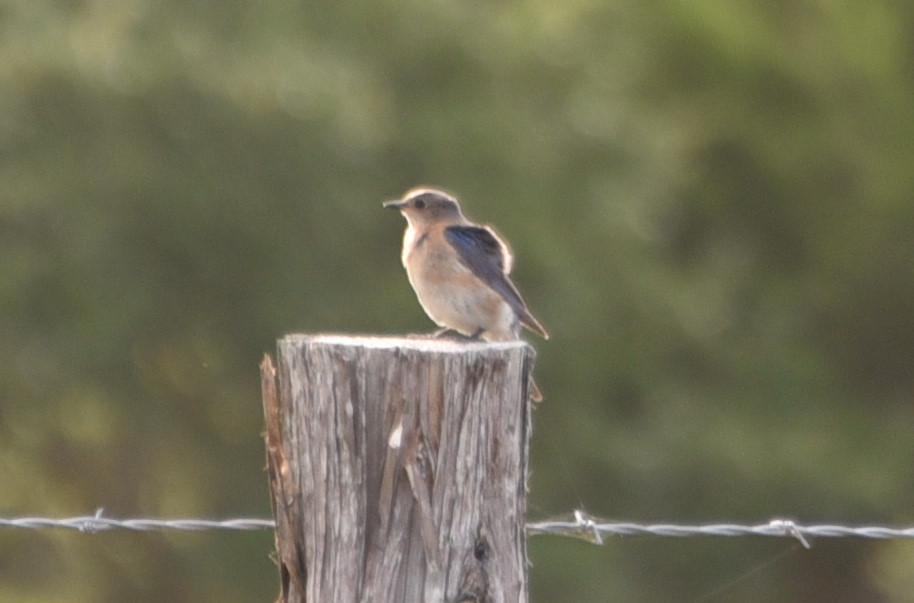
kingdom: Animalia
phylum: Chordata
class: Aves
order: Passeriformes
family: Turdidae
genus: Sialia
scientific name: Sialia sialis
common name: Eastern bluebird
